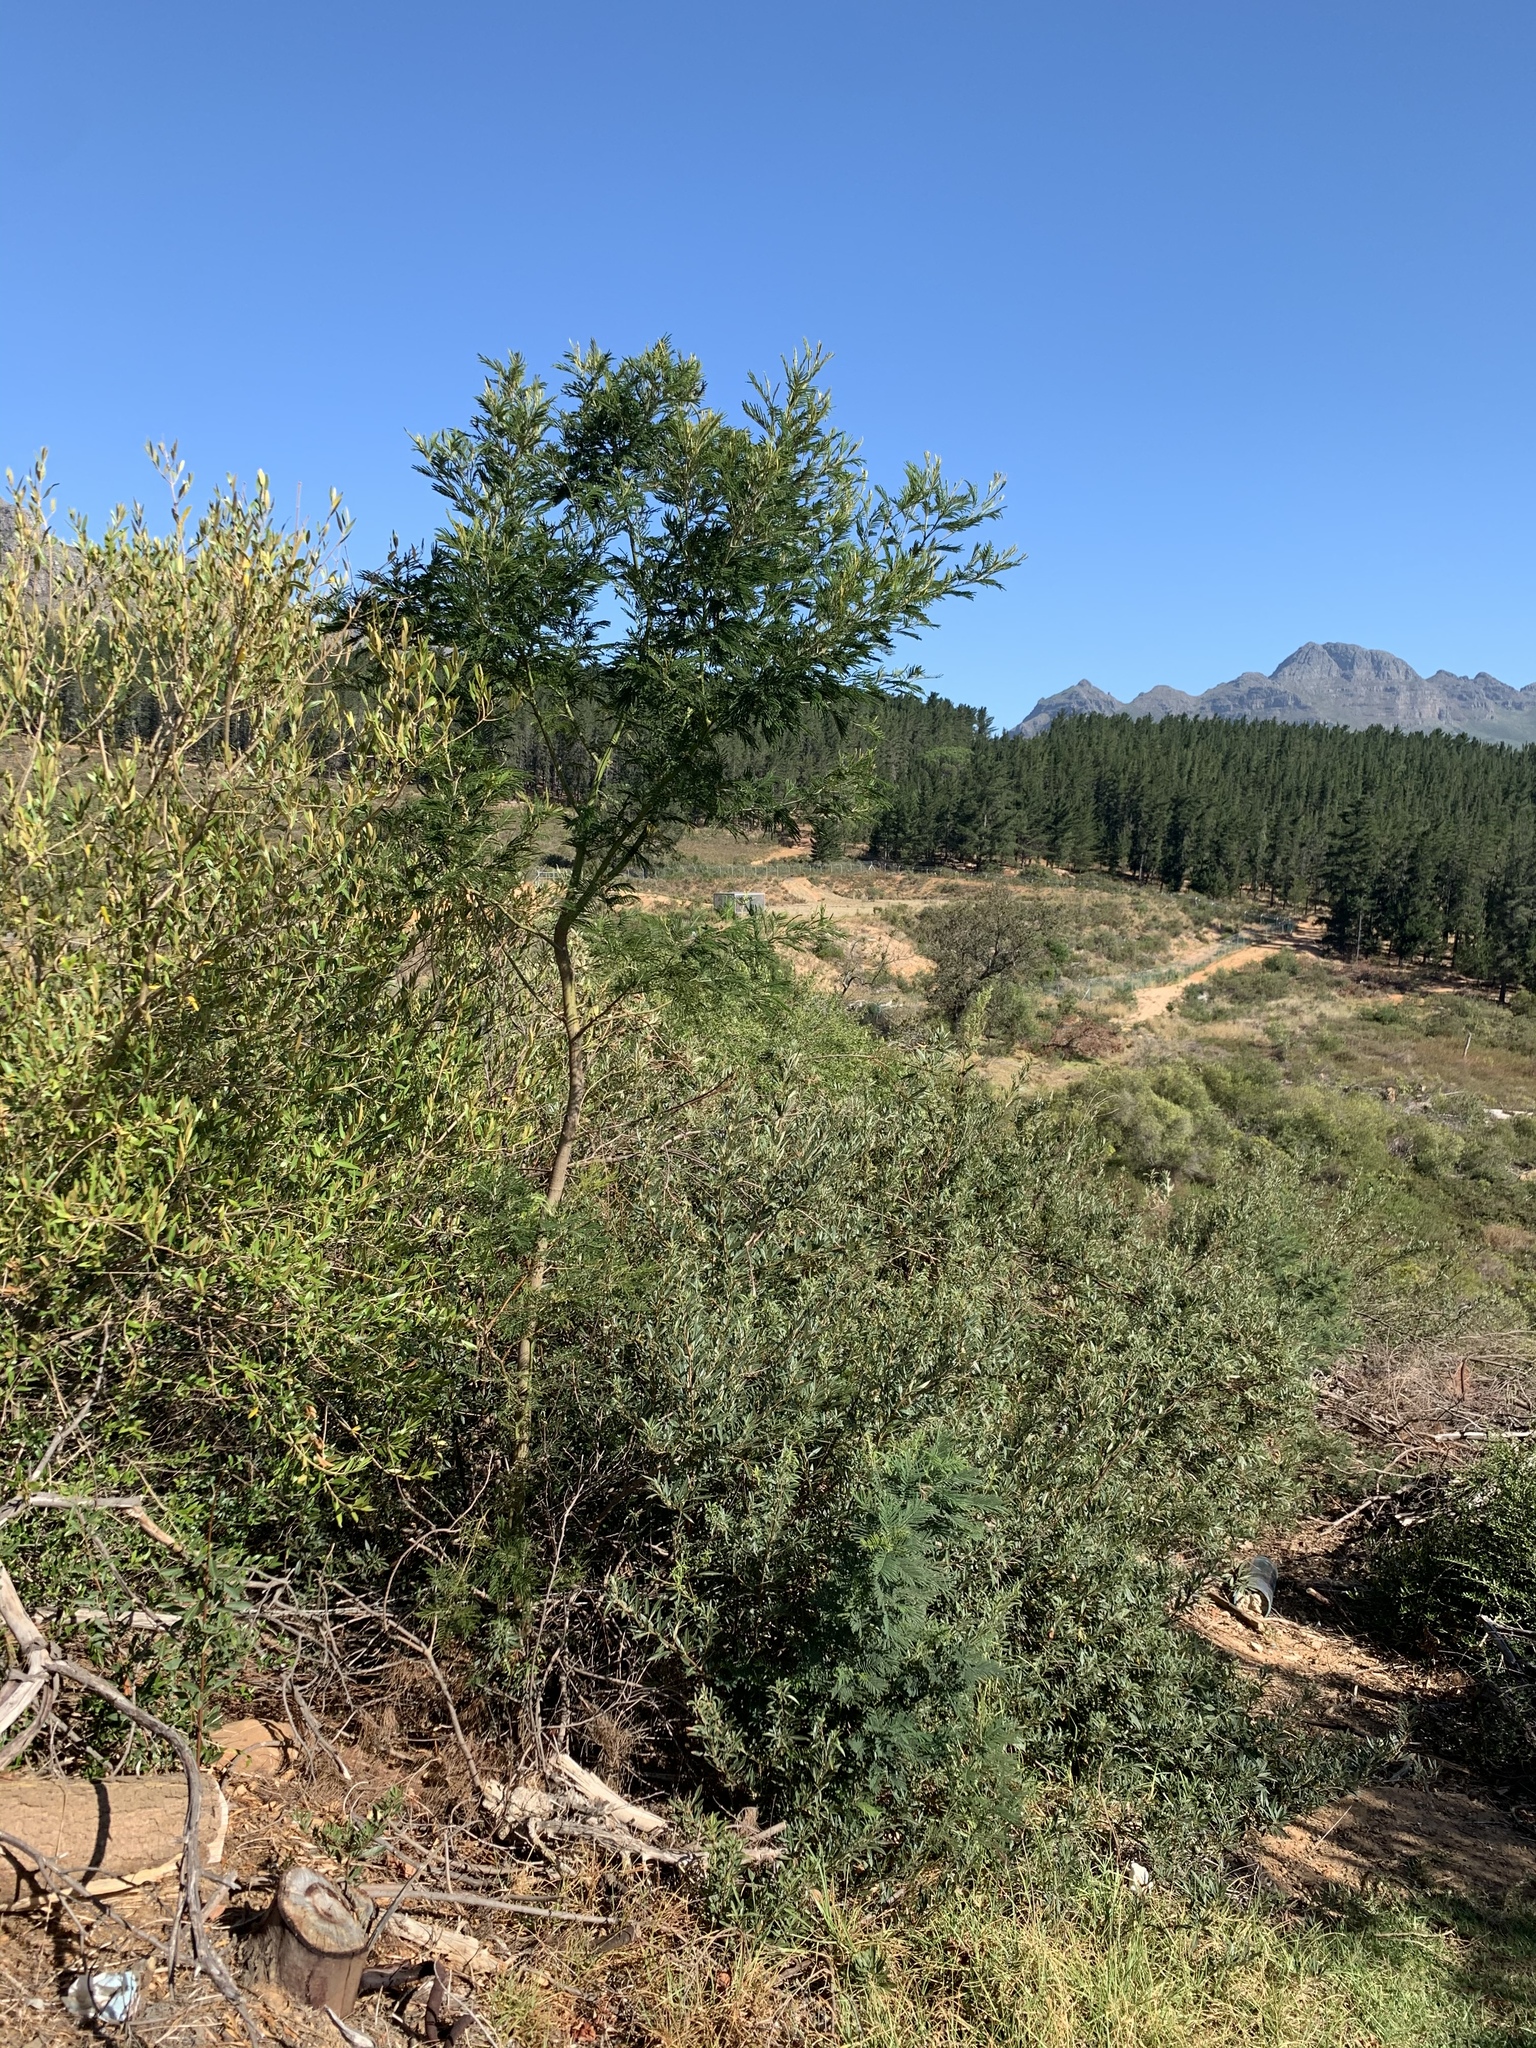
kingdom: Plantae
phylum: Tracheophyta
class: Magnoliopsida
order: Fabales
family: Fabaceae
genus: Acacia
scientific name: Acacia mearnsii
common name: Black wattle
